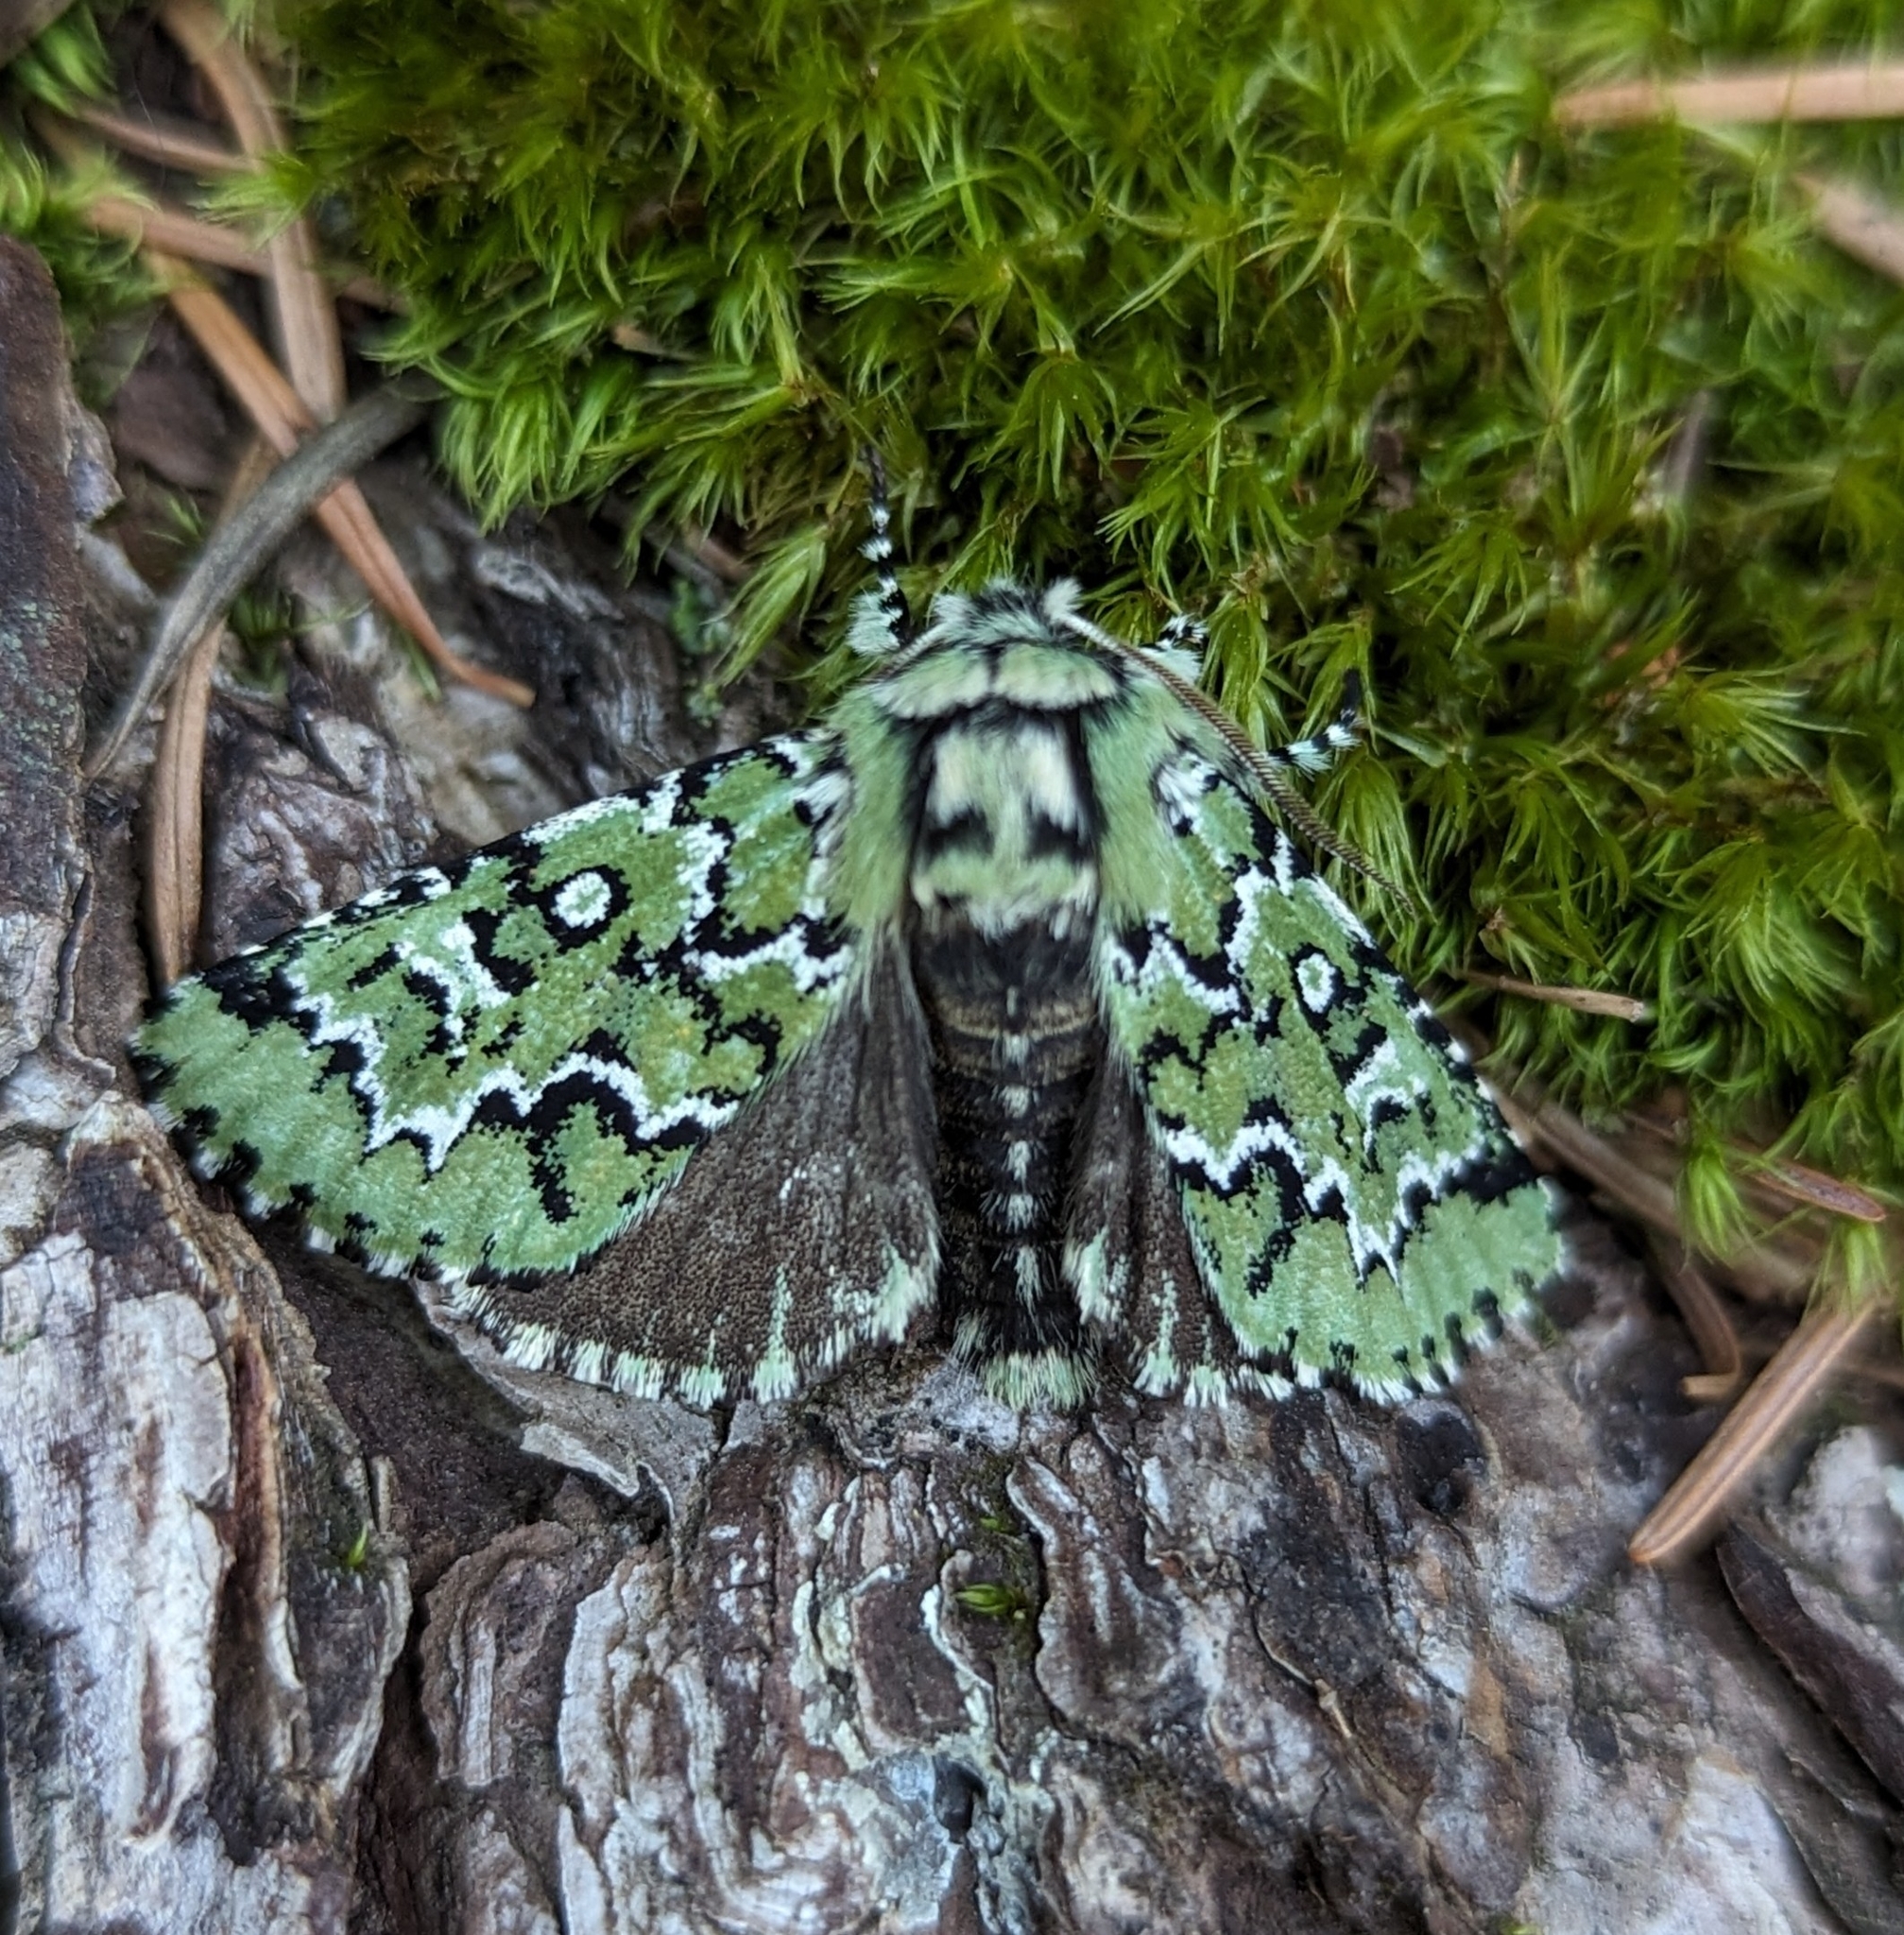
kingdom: Animalia
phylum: Arthropoda
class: Insecta
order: Lepidoptera
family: Noctuidae
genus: Feralia
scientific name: Feralia deceptiva
